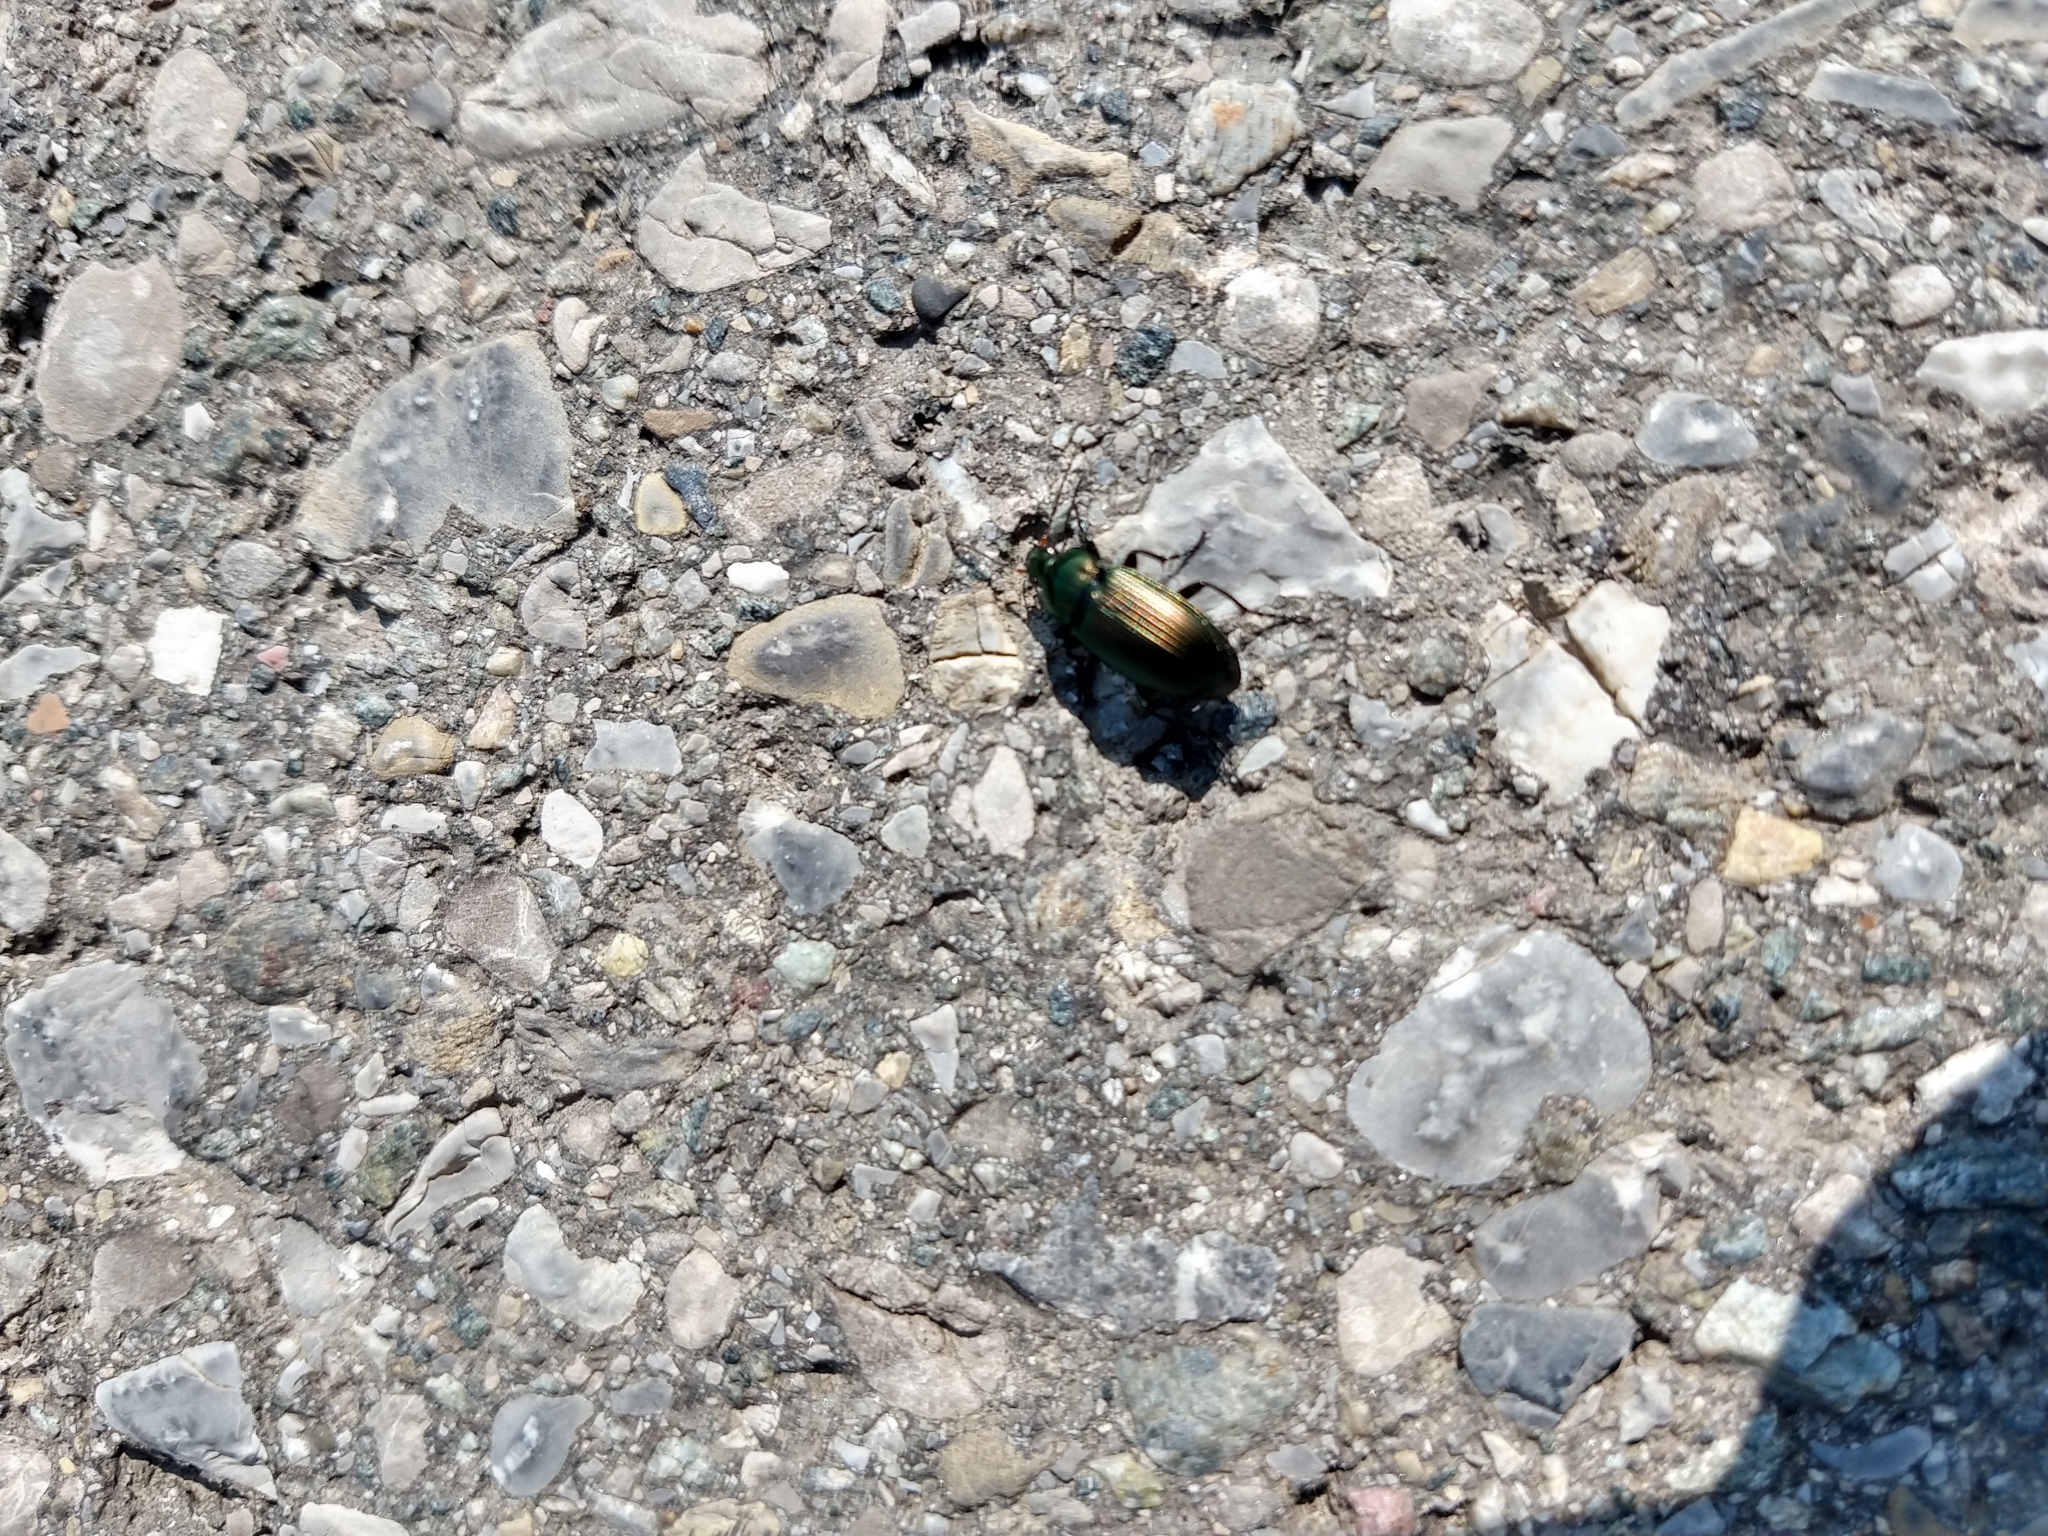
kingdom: Animalia
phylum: Arthropoda
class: Insecta
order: Coleoptera
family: Carabidae
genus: Poecilus
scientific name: Poecilus cupreus
